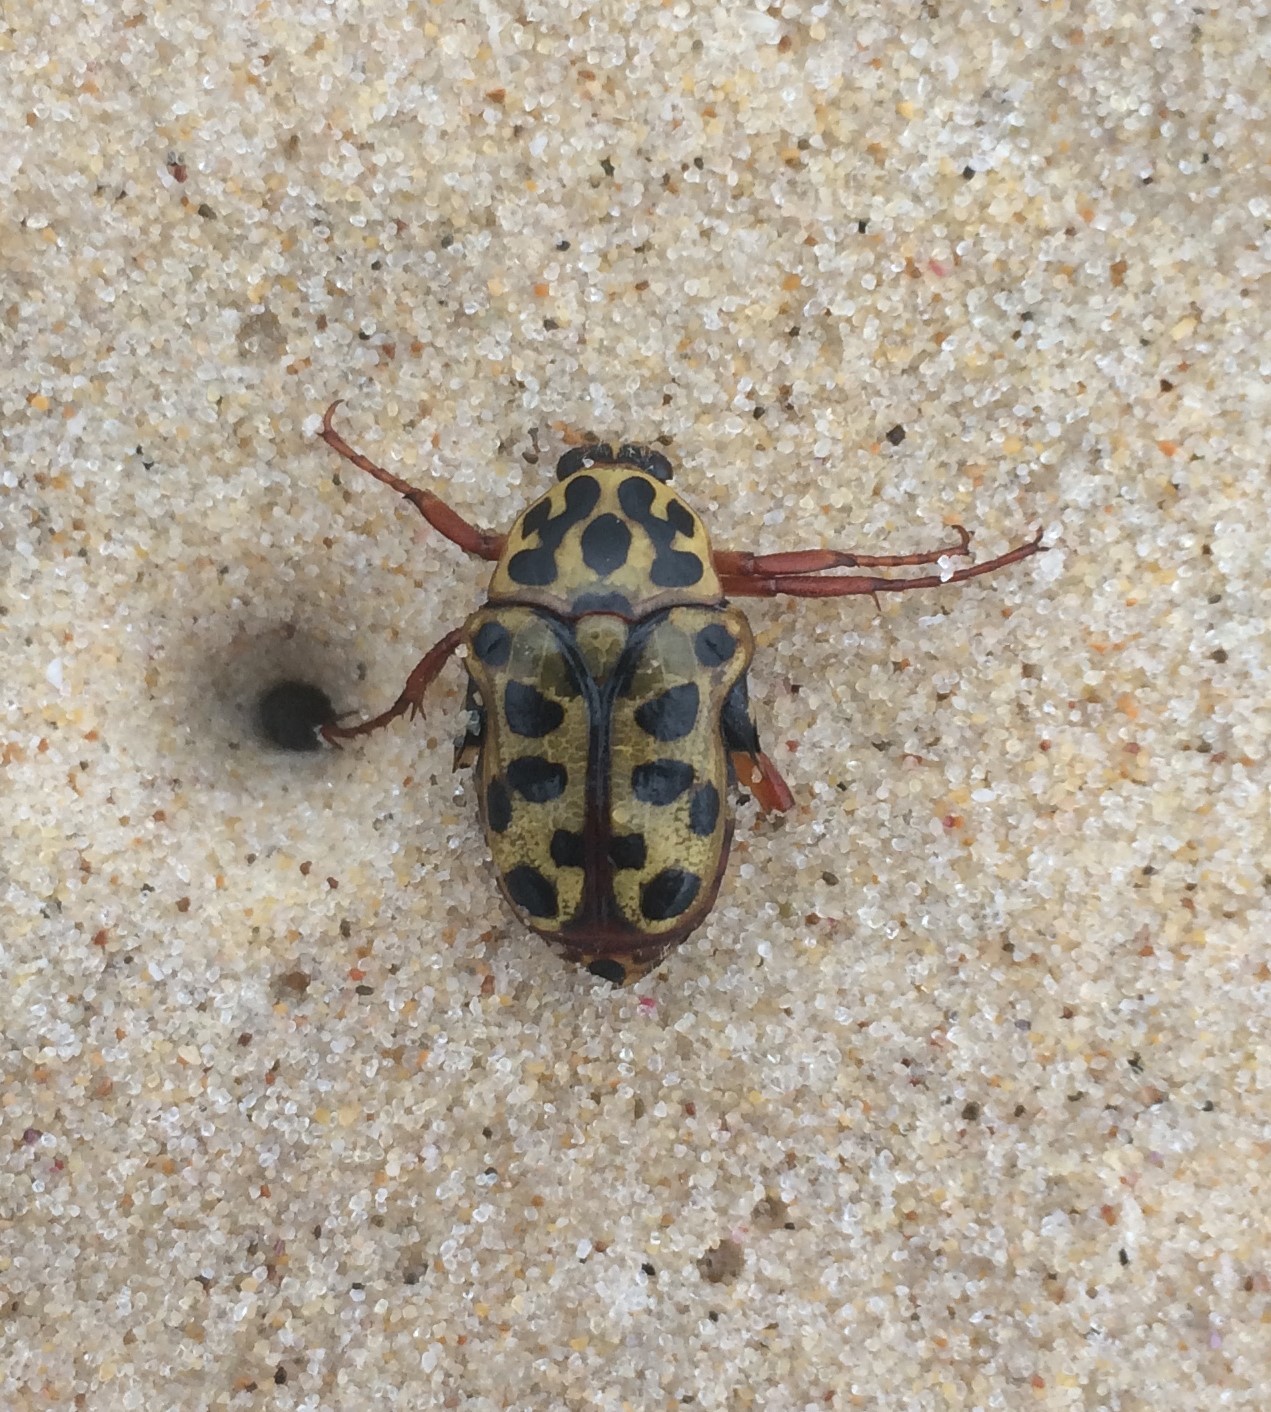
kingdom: Animalia
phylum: Arthropoda
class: Insecta
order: Coleoptera
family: Scarabaeidae
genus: Neorrhina
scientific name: Neorrhina punctatum
